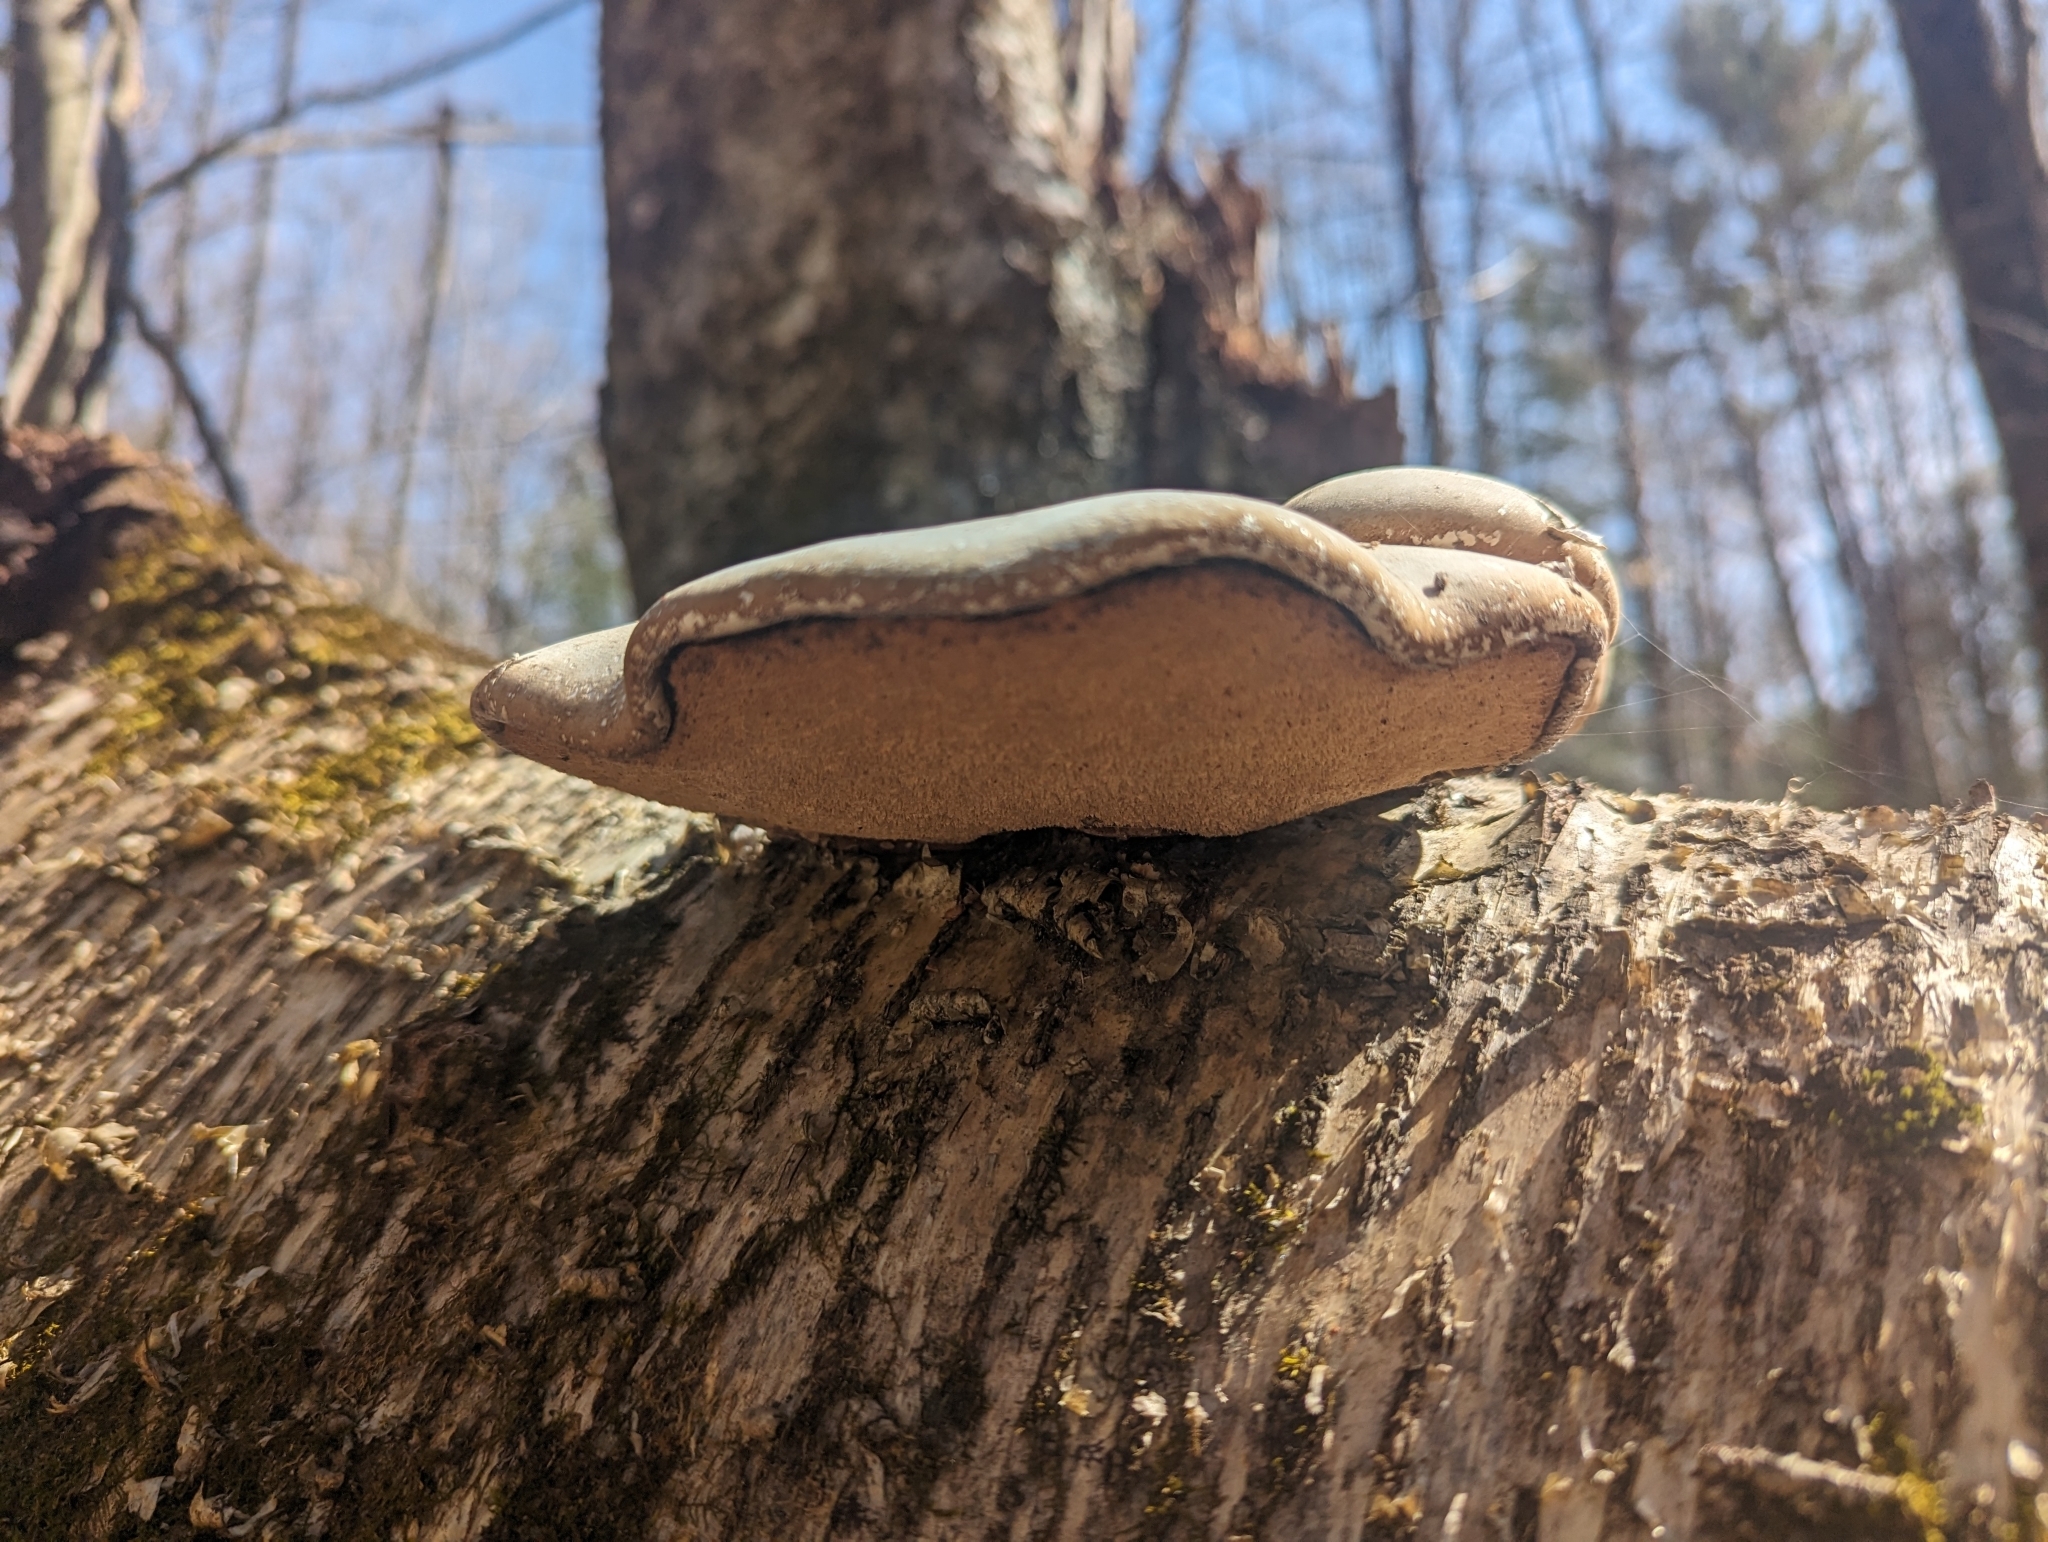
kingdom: Fungi
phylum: Basidiomycota
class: Agaricomycetes
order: Polyporales
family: Fomitopsidaceae
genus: Fomitopsis
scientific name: Fomitopsis betulina
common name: Birch polypore
